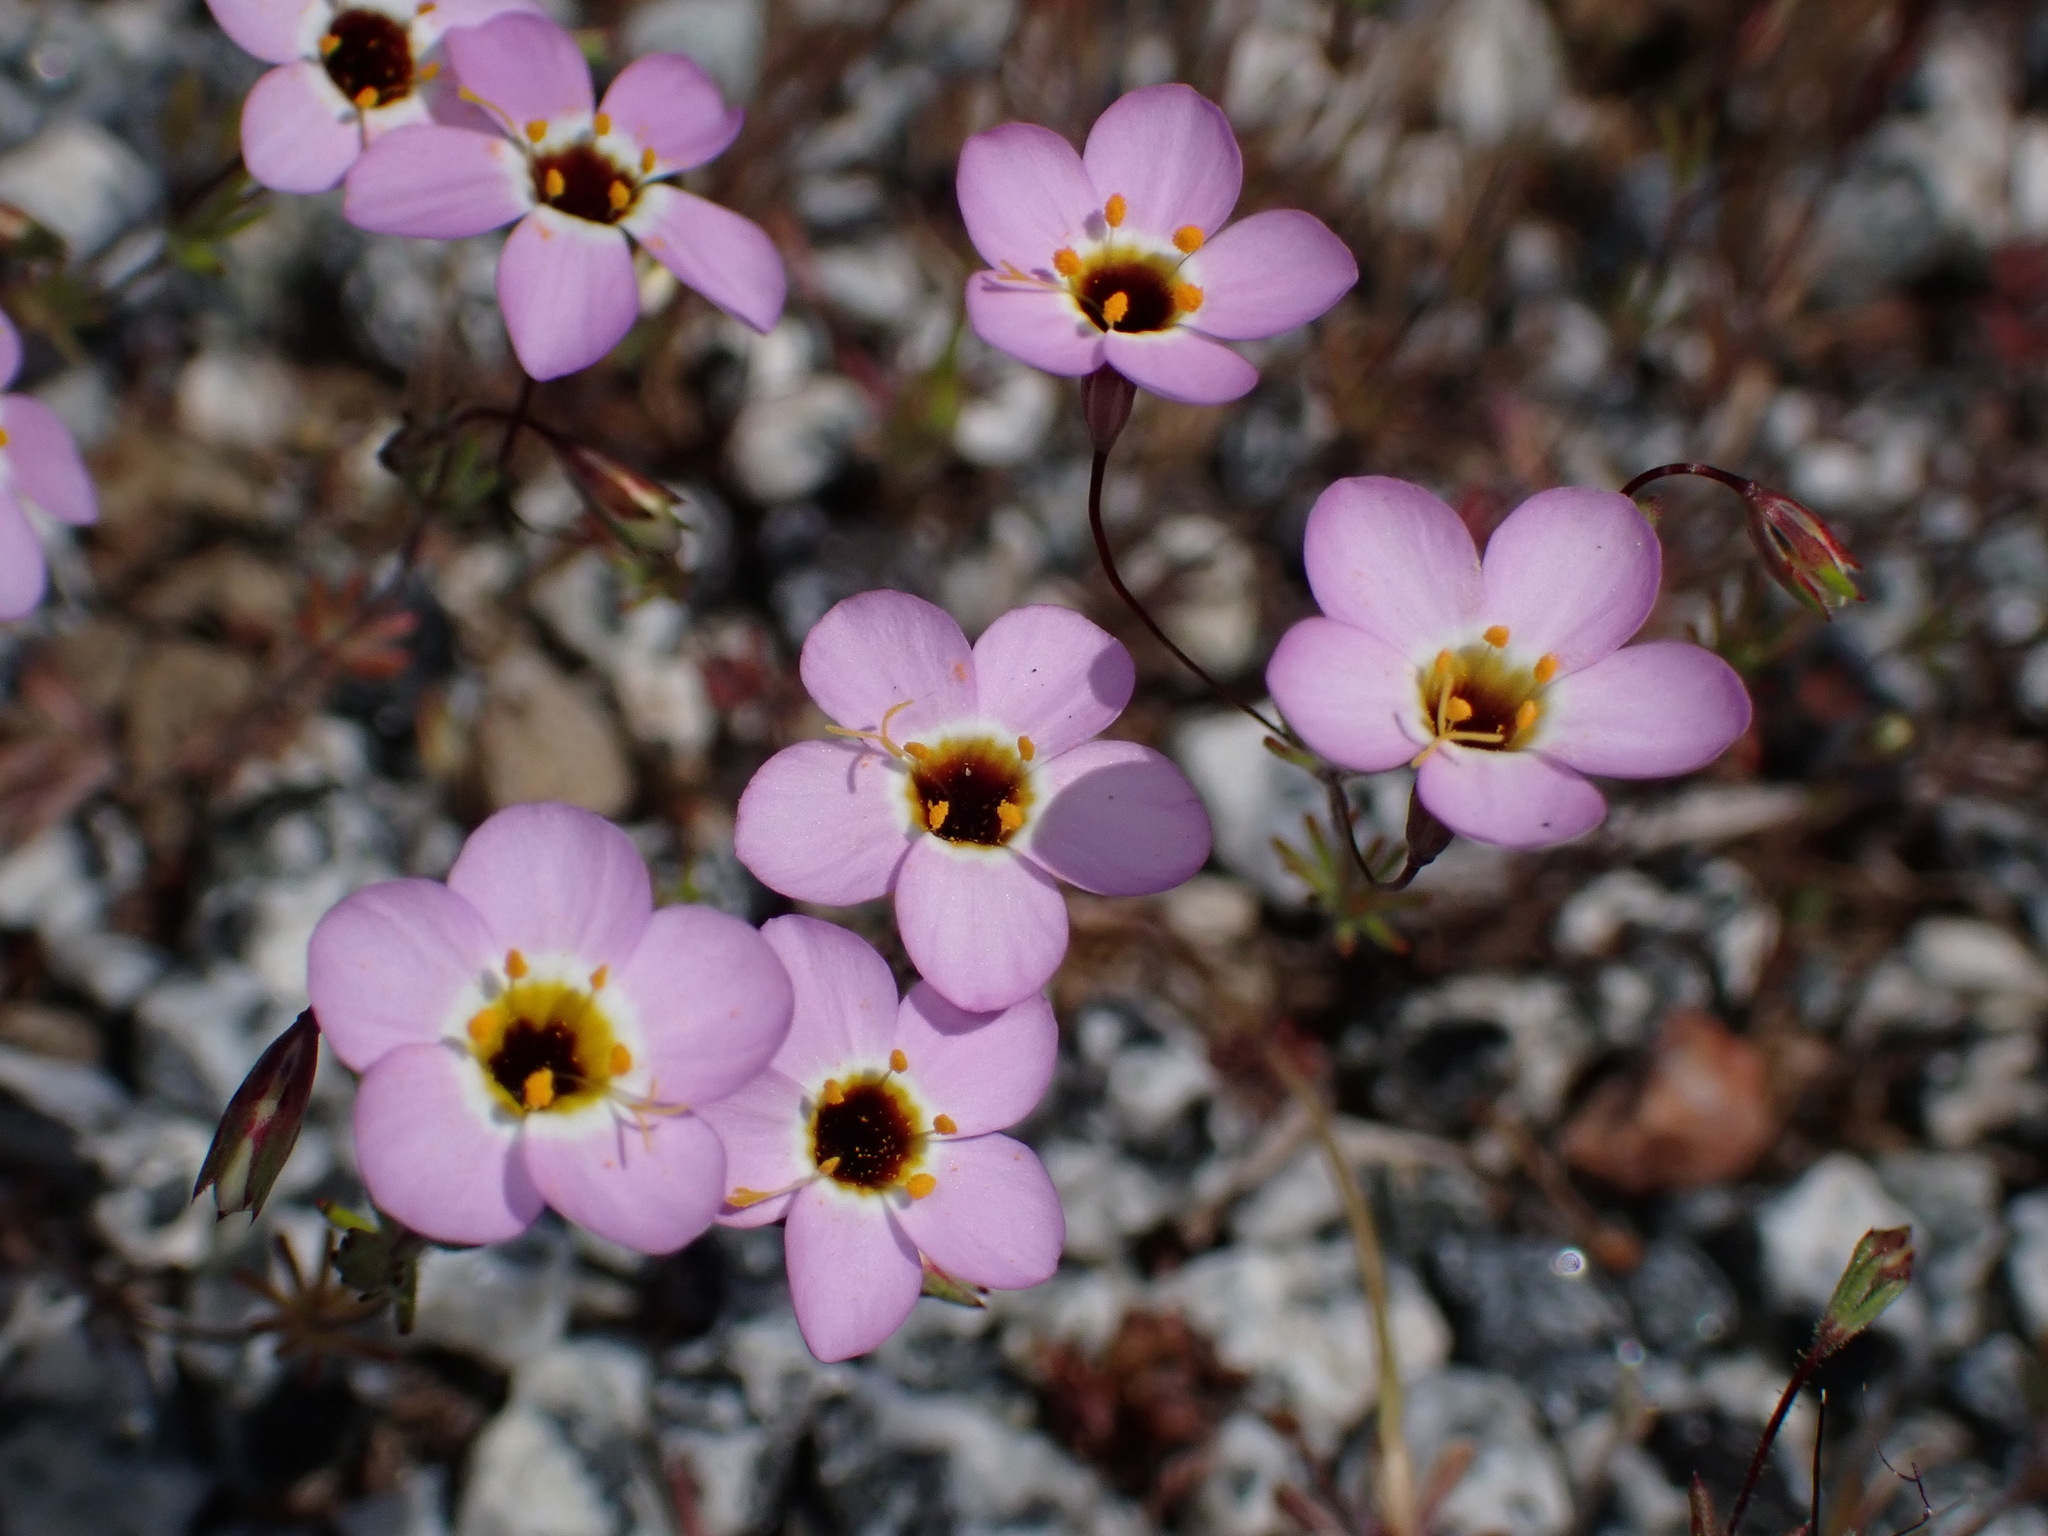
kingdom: Plantae
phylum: Tracheophyta
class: Magnoliopsida
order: Ericales
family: Polemoniaceae
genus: Leptosiphon
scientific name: Leptosiphon ambiguus
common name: Serpentine linanthus
